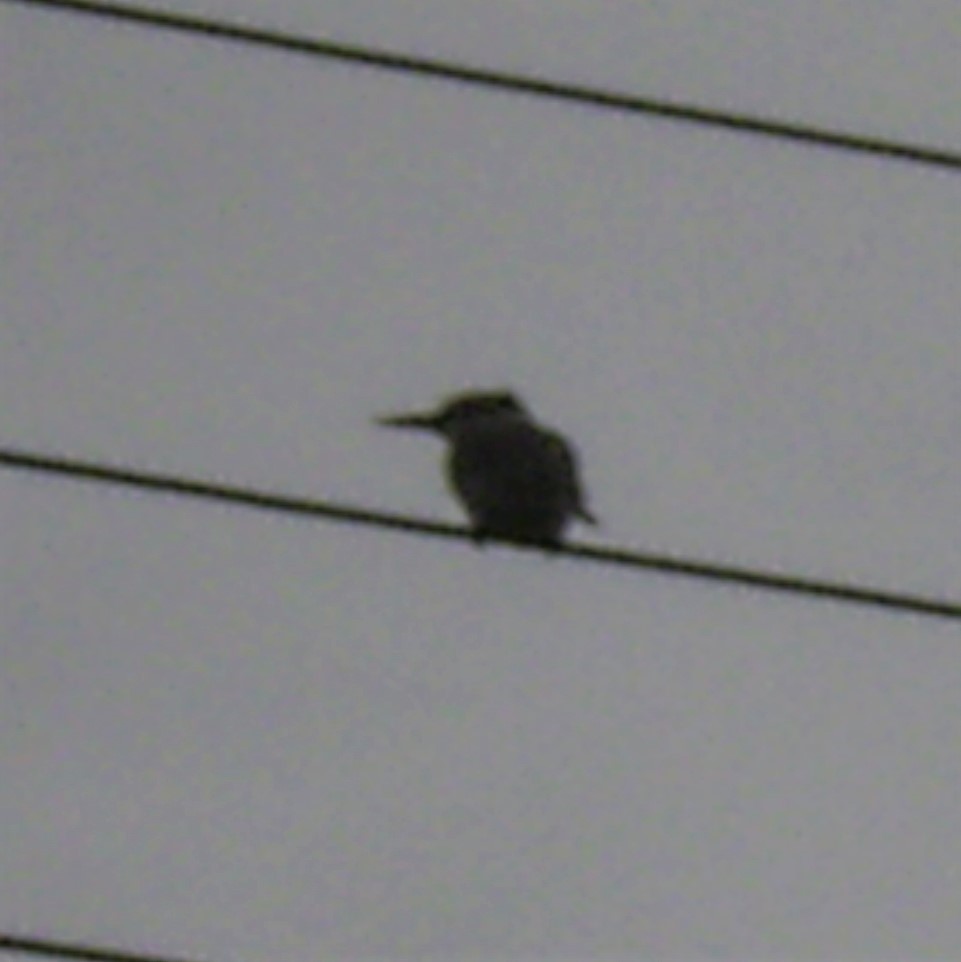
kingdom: Animalia
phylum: Chordata
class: Aves
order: Coraciiformes
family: Alcedinidae
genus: Halcyon
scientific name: Halcyon albiventris
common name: Brown-hooded kingfisher
